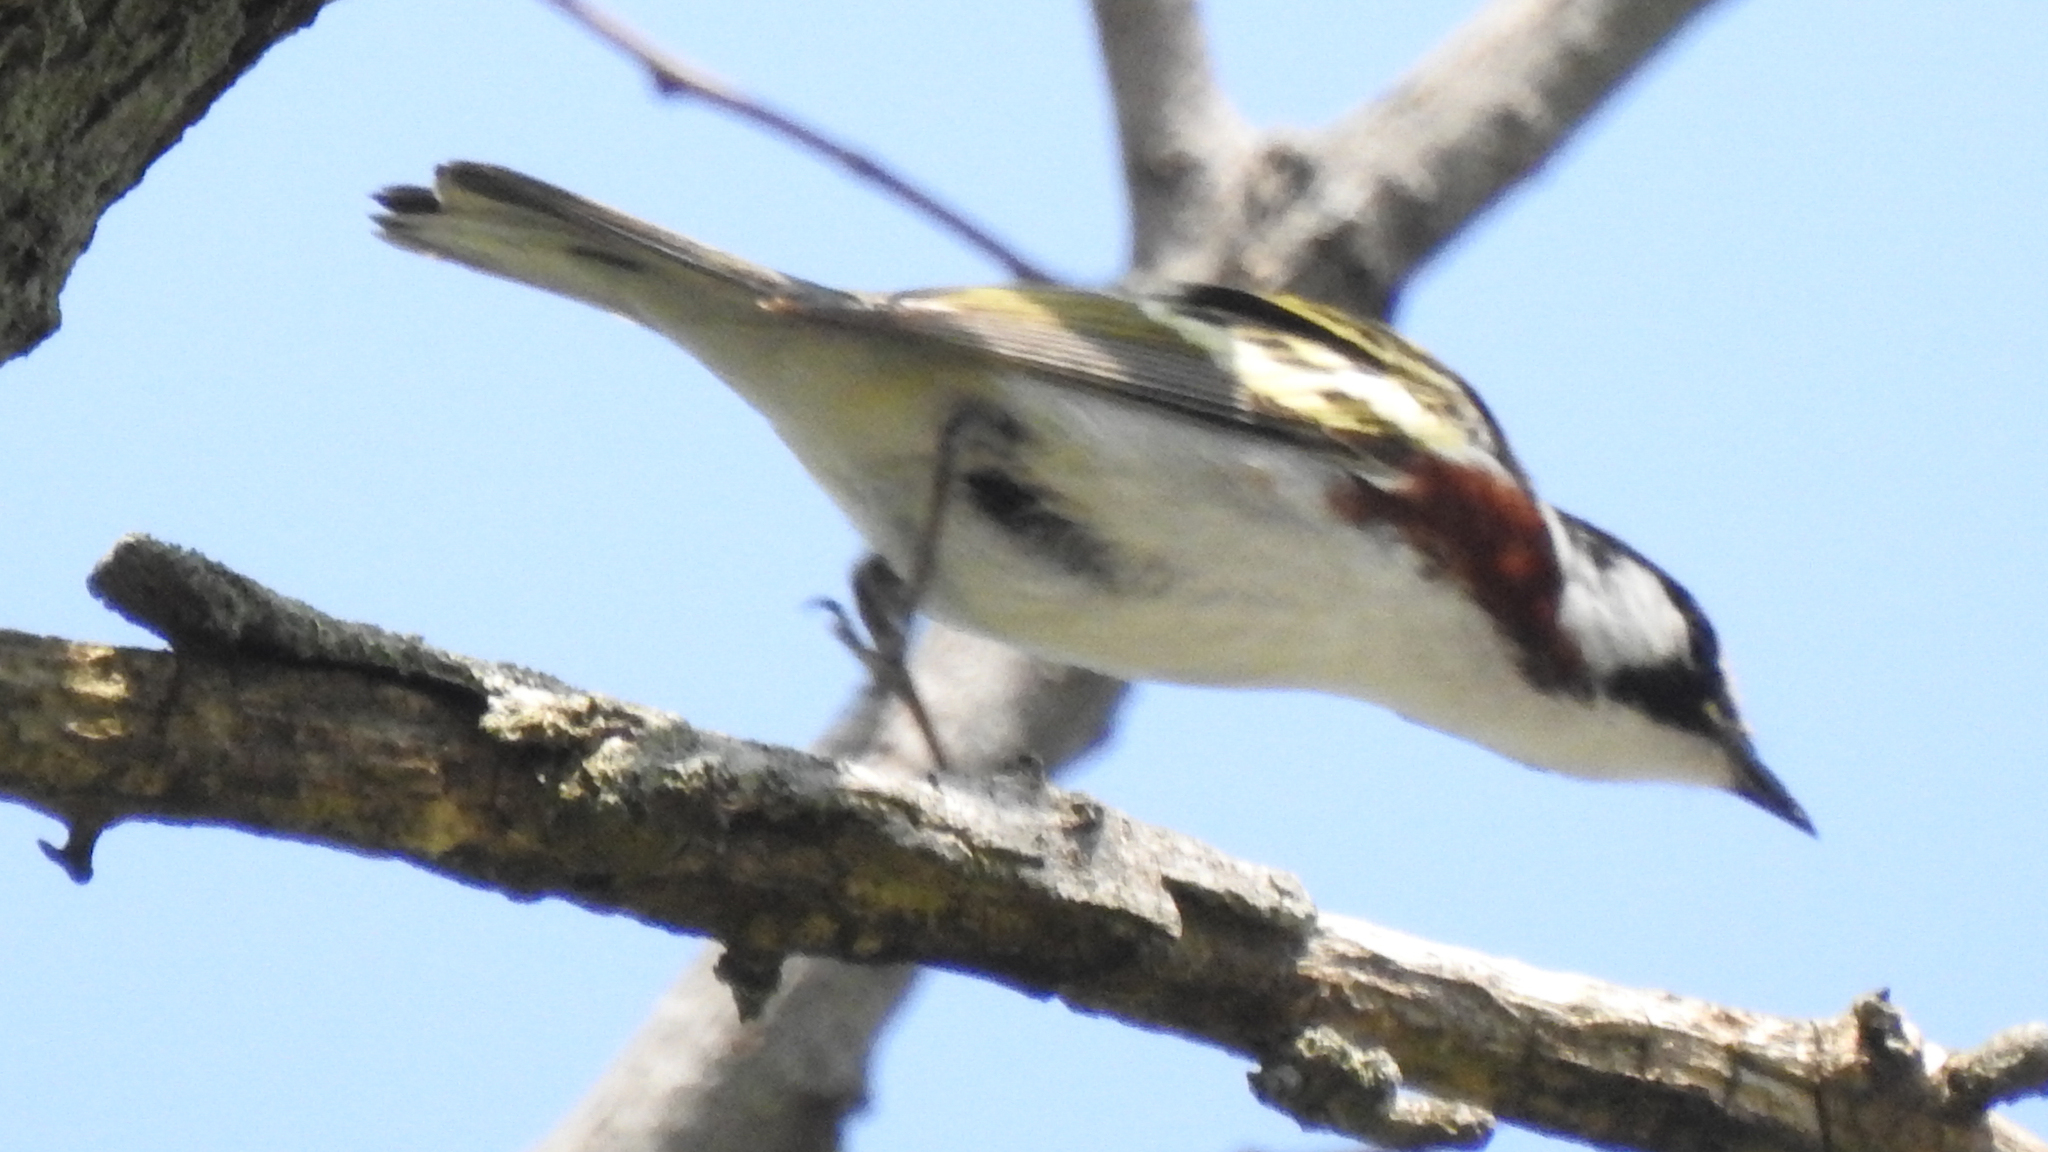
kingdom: Animalia
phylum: Chordata
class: Aves
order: Passeriformes
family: Parulidae
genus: Setophaga
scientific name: Setophaga pensylvanica
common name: Chestnut-sided warbler
